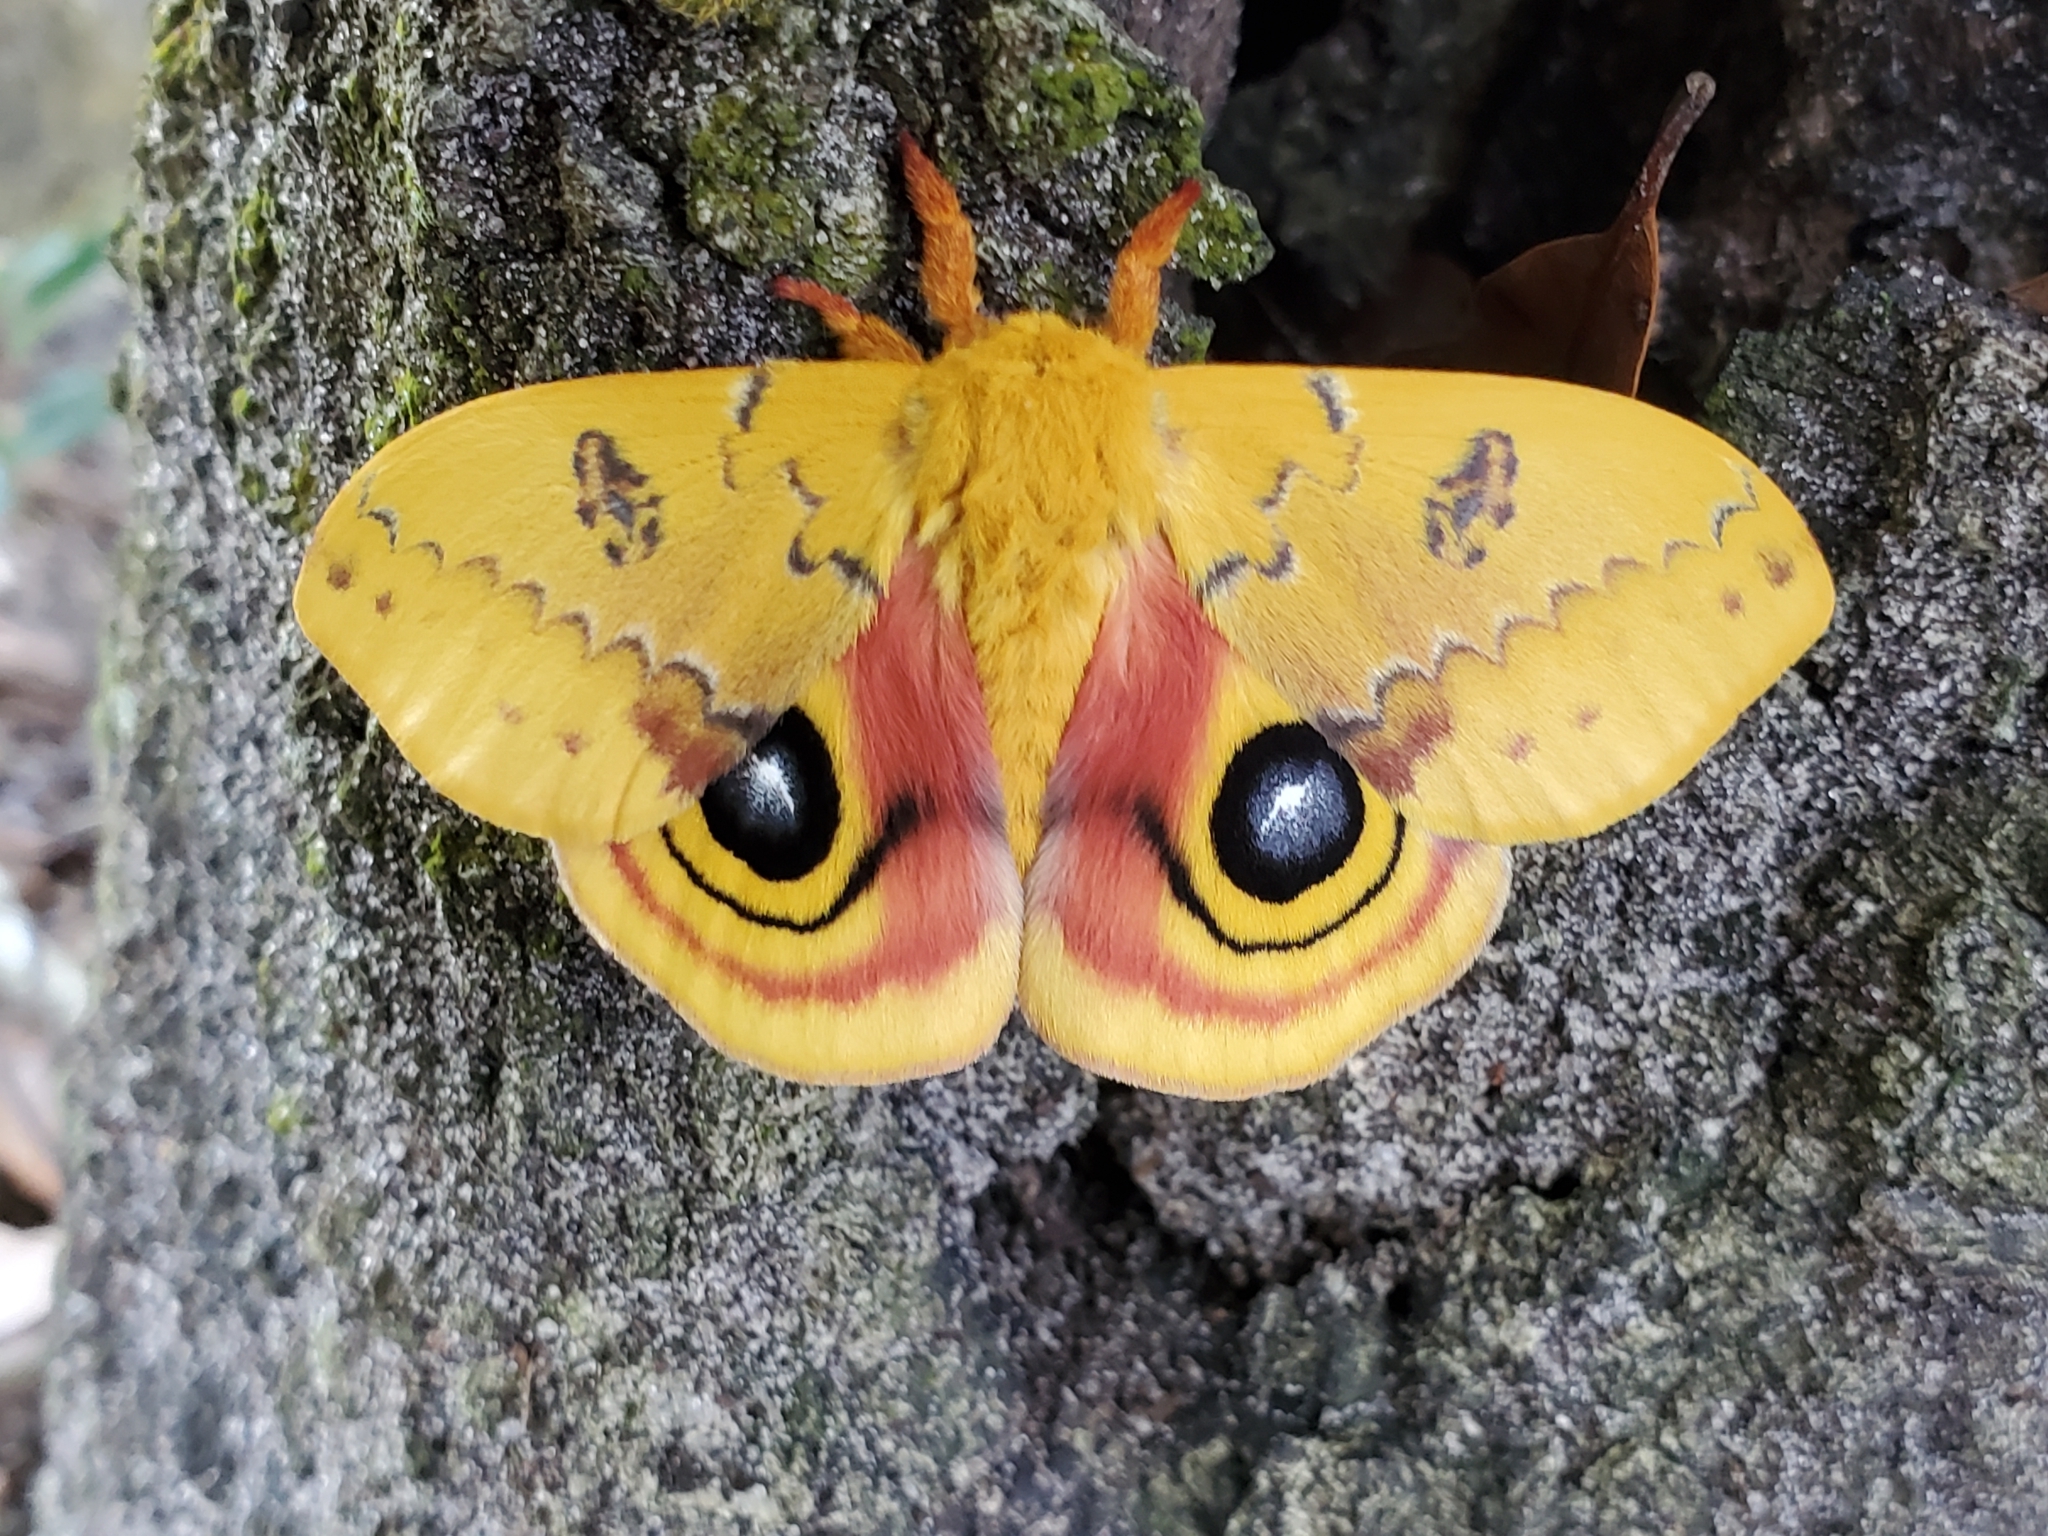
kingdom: Animalia
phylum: Arthropoda
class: Insecta
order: Lepidoptera
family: Saturniidae
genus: Automeris
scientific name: Automeris io
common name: Io moth
